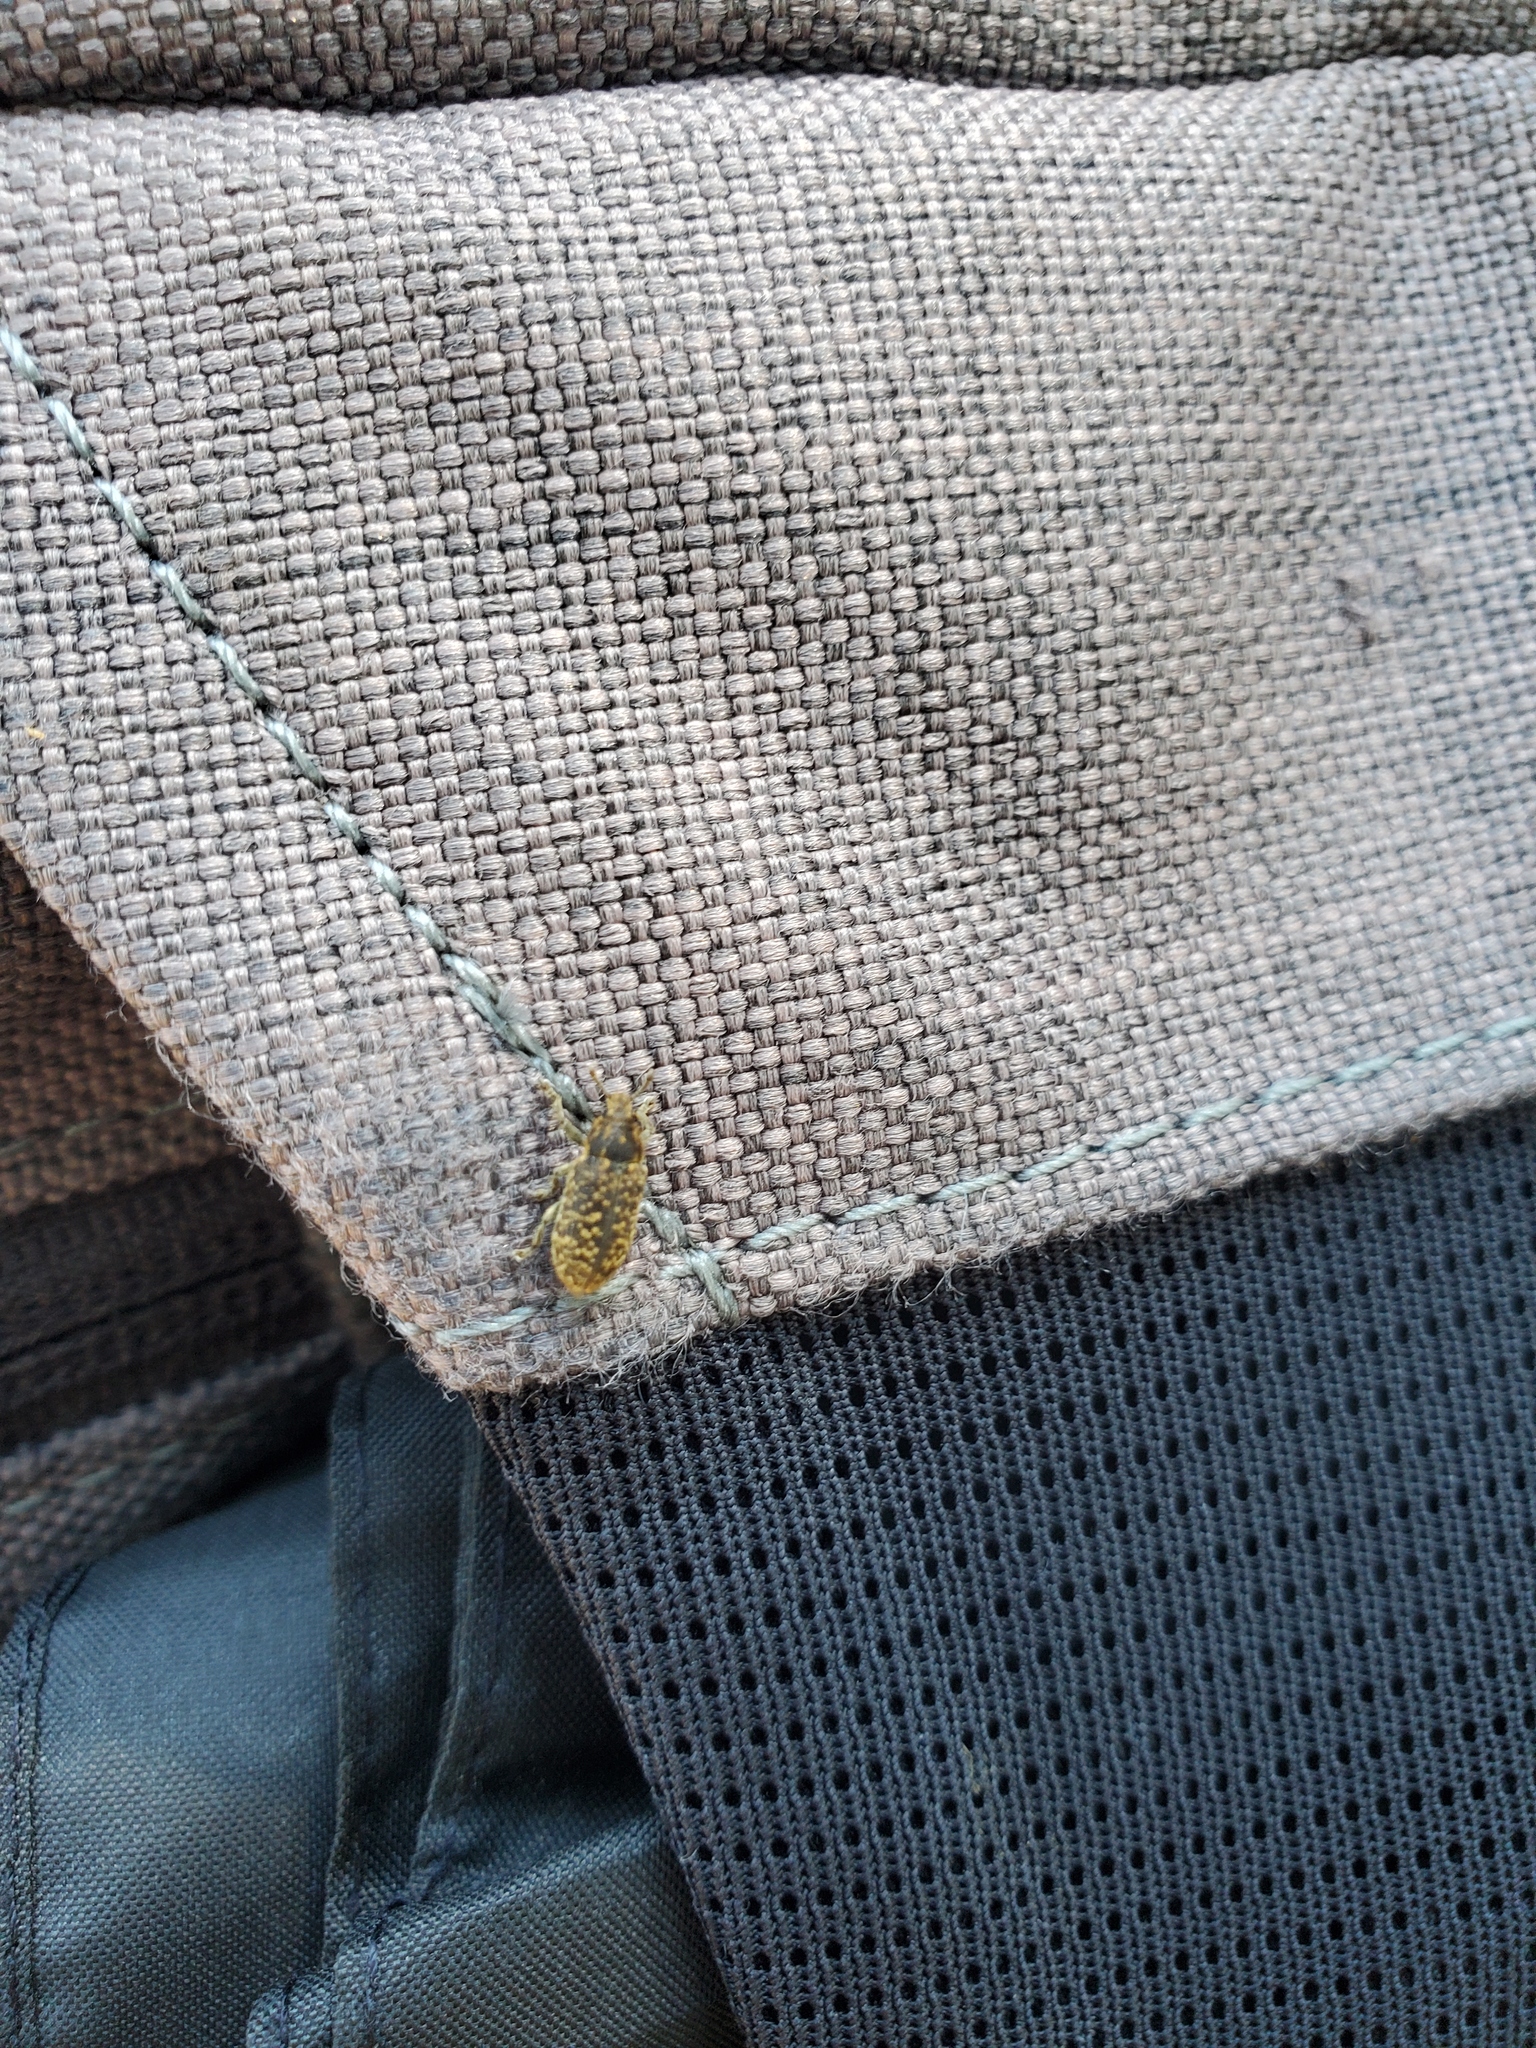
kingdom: Animalia
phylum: Arthropoda
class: Insecta
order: Coleoptera
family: Curculionidae
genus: Rhinocyllus
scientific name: Rhinocyllus conicus
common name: Weevil
